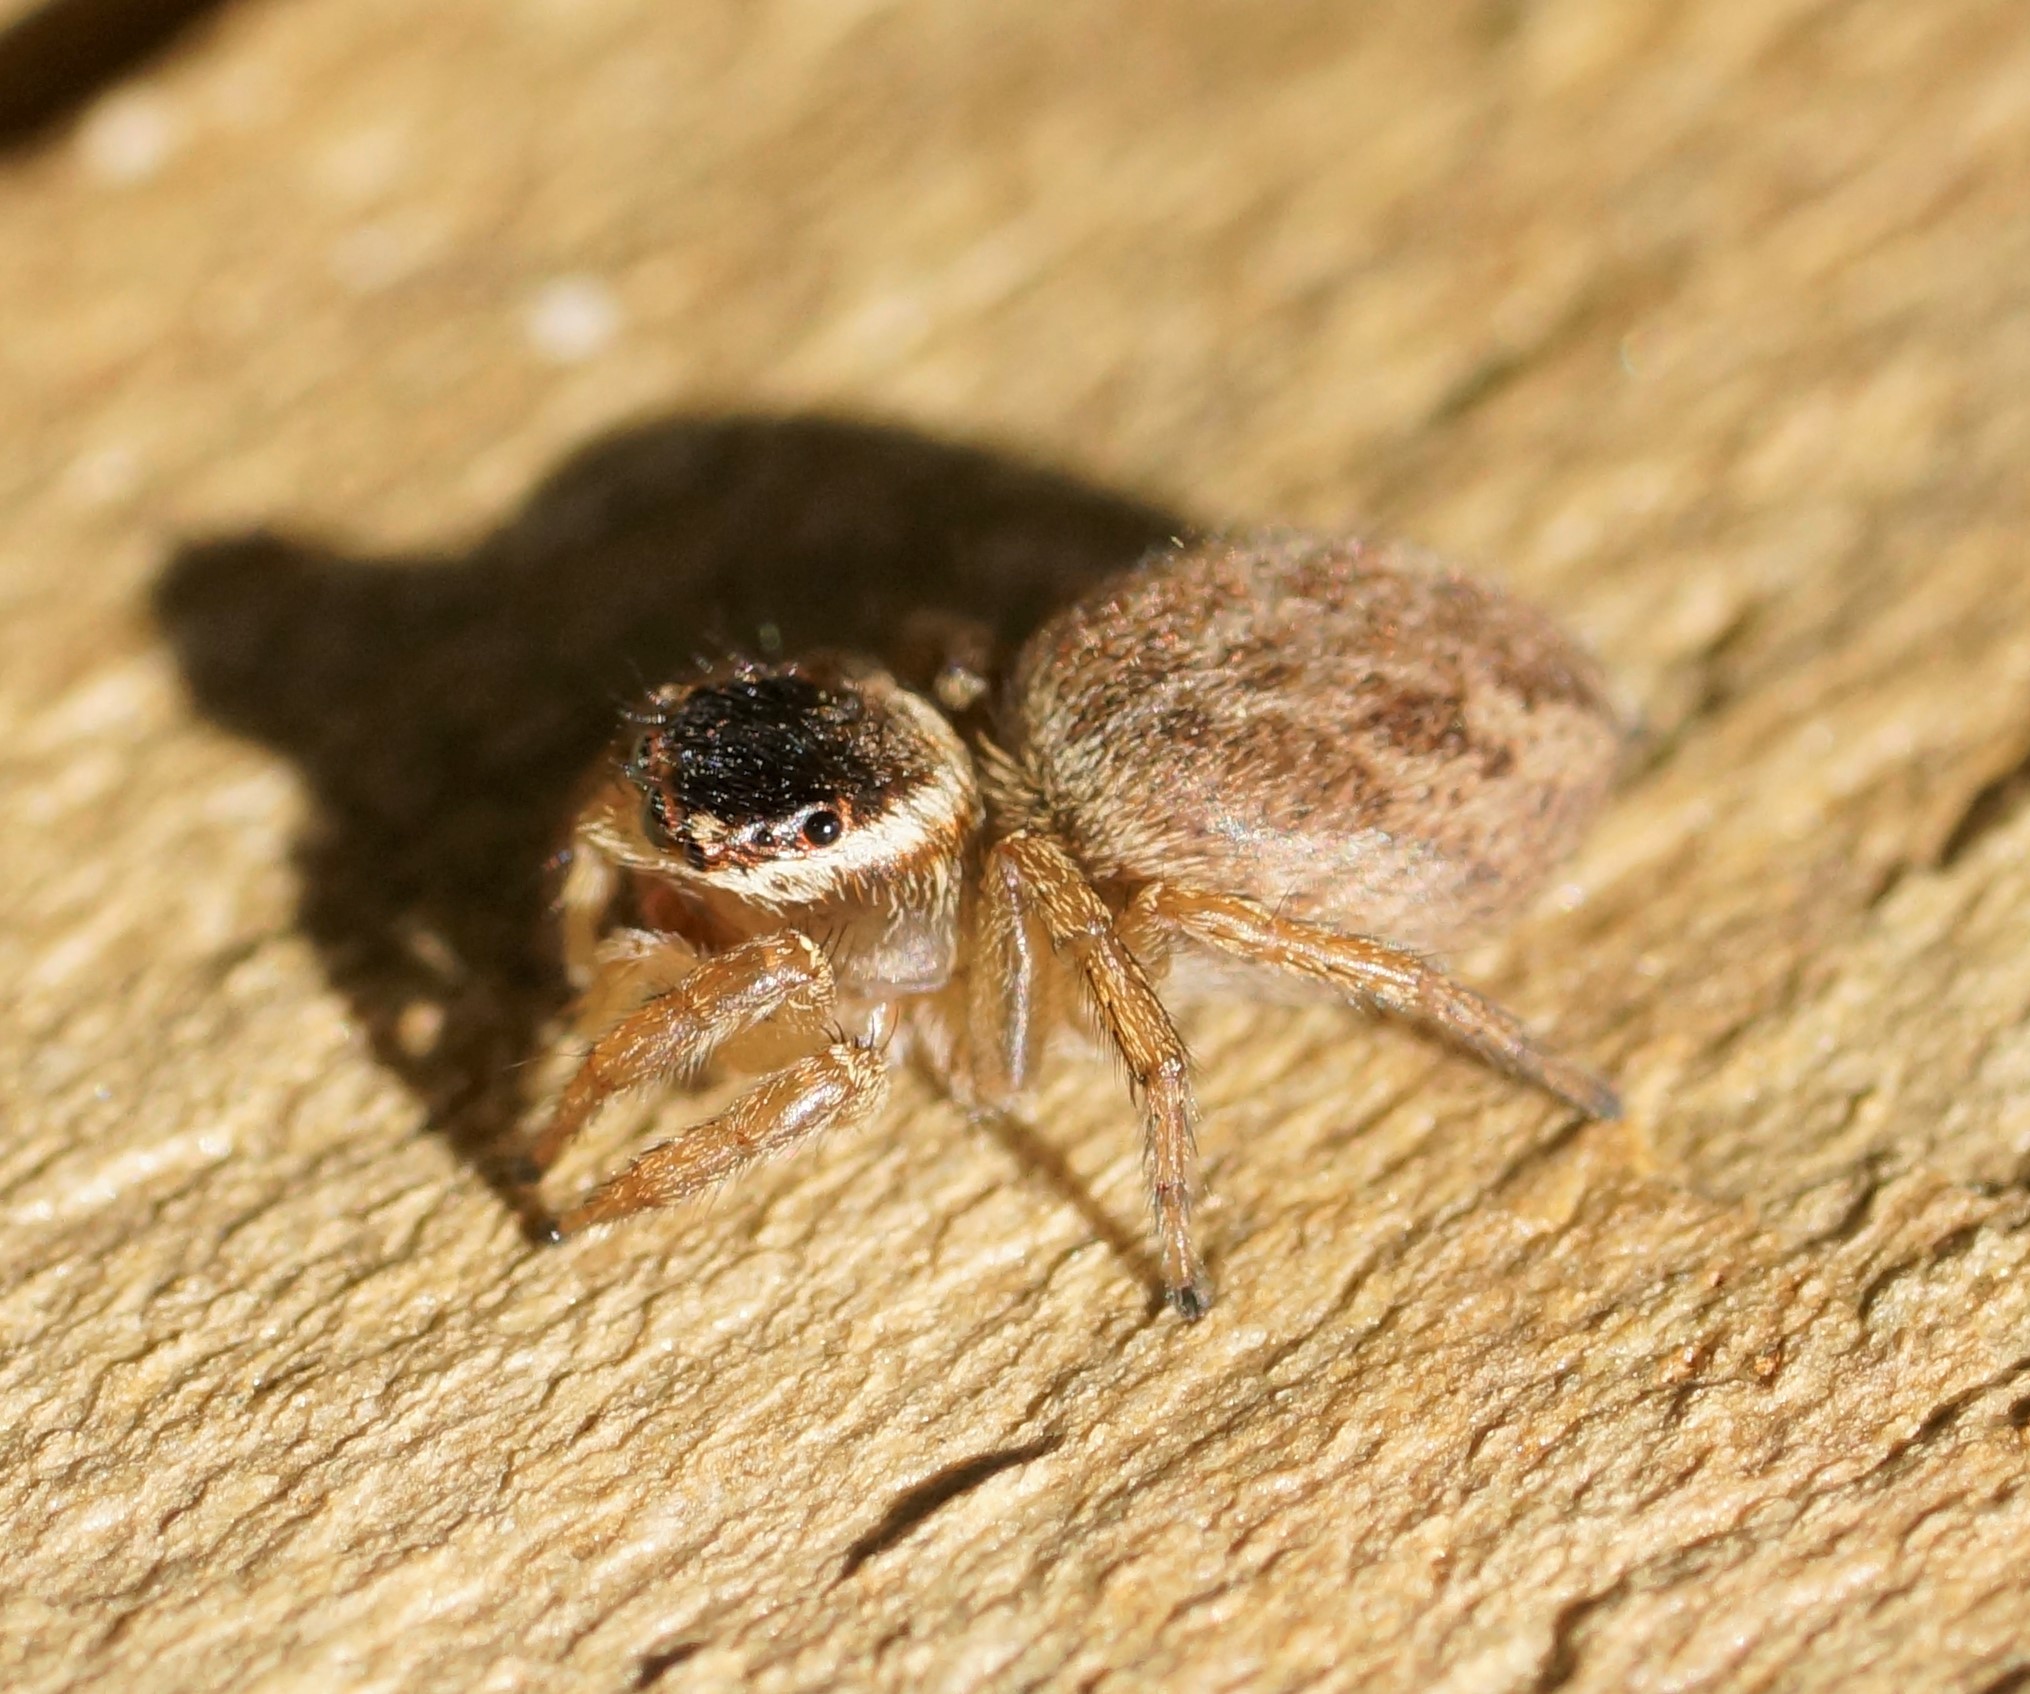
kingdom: Animalia
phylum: Arthropoda
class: Arachnida
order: Araneae
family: Salticidae
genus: Maratus
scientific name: Maratus griseus
